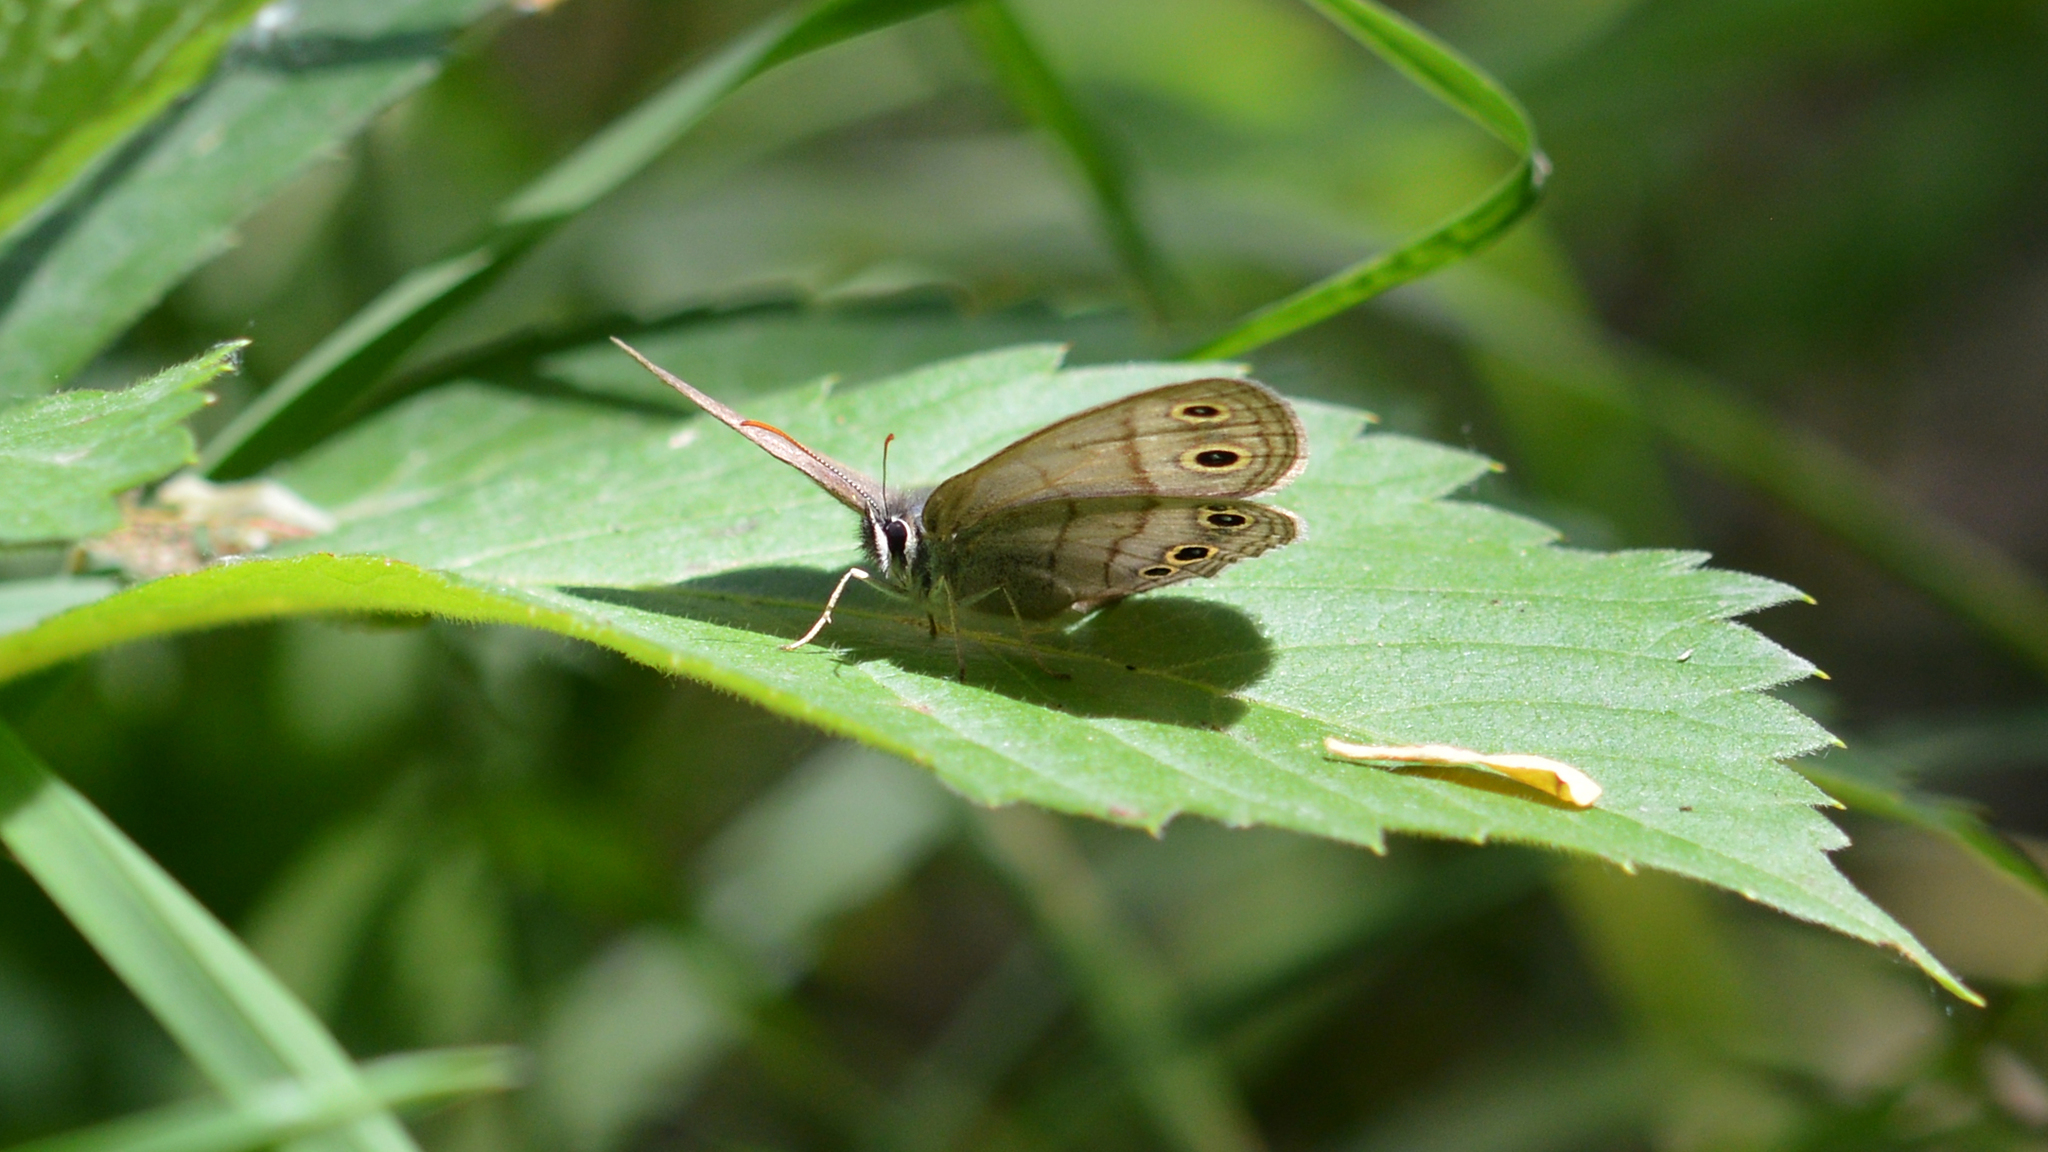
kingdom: Animalia
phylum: Arthropoda
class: Insecta
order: Lepidoptera
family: Nymphalidae
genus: Euptychia
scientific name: Euptychia cymela
